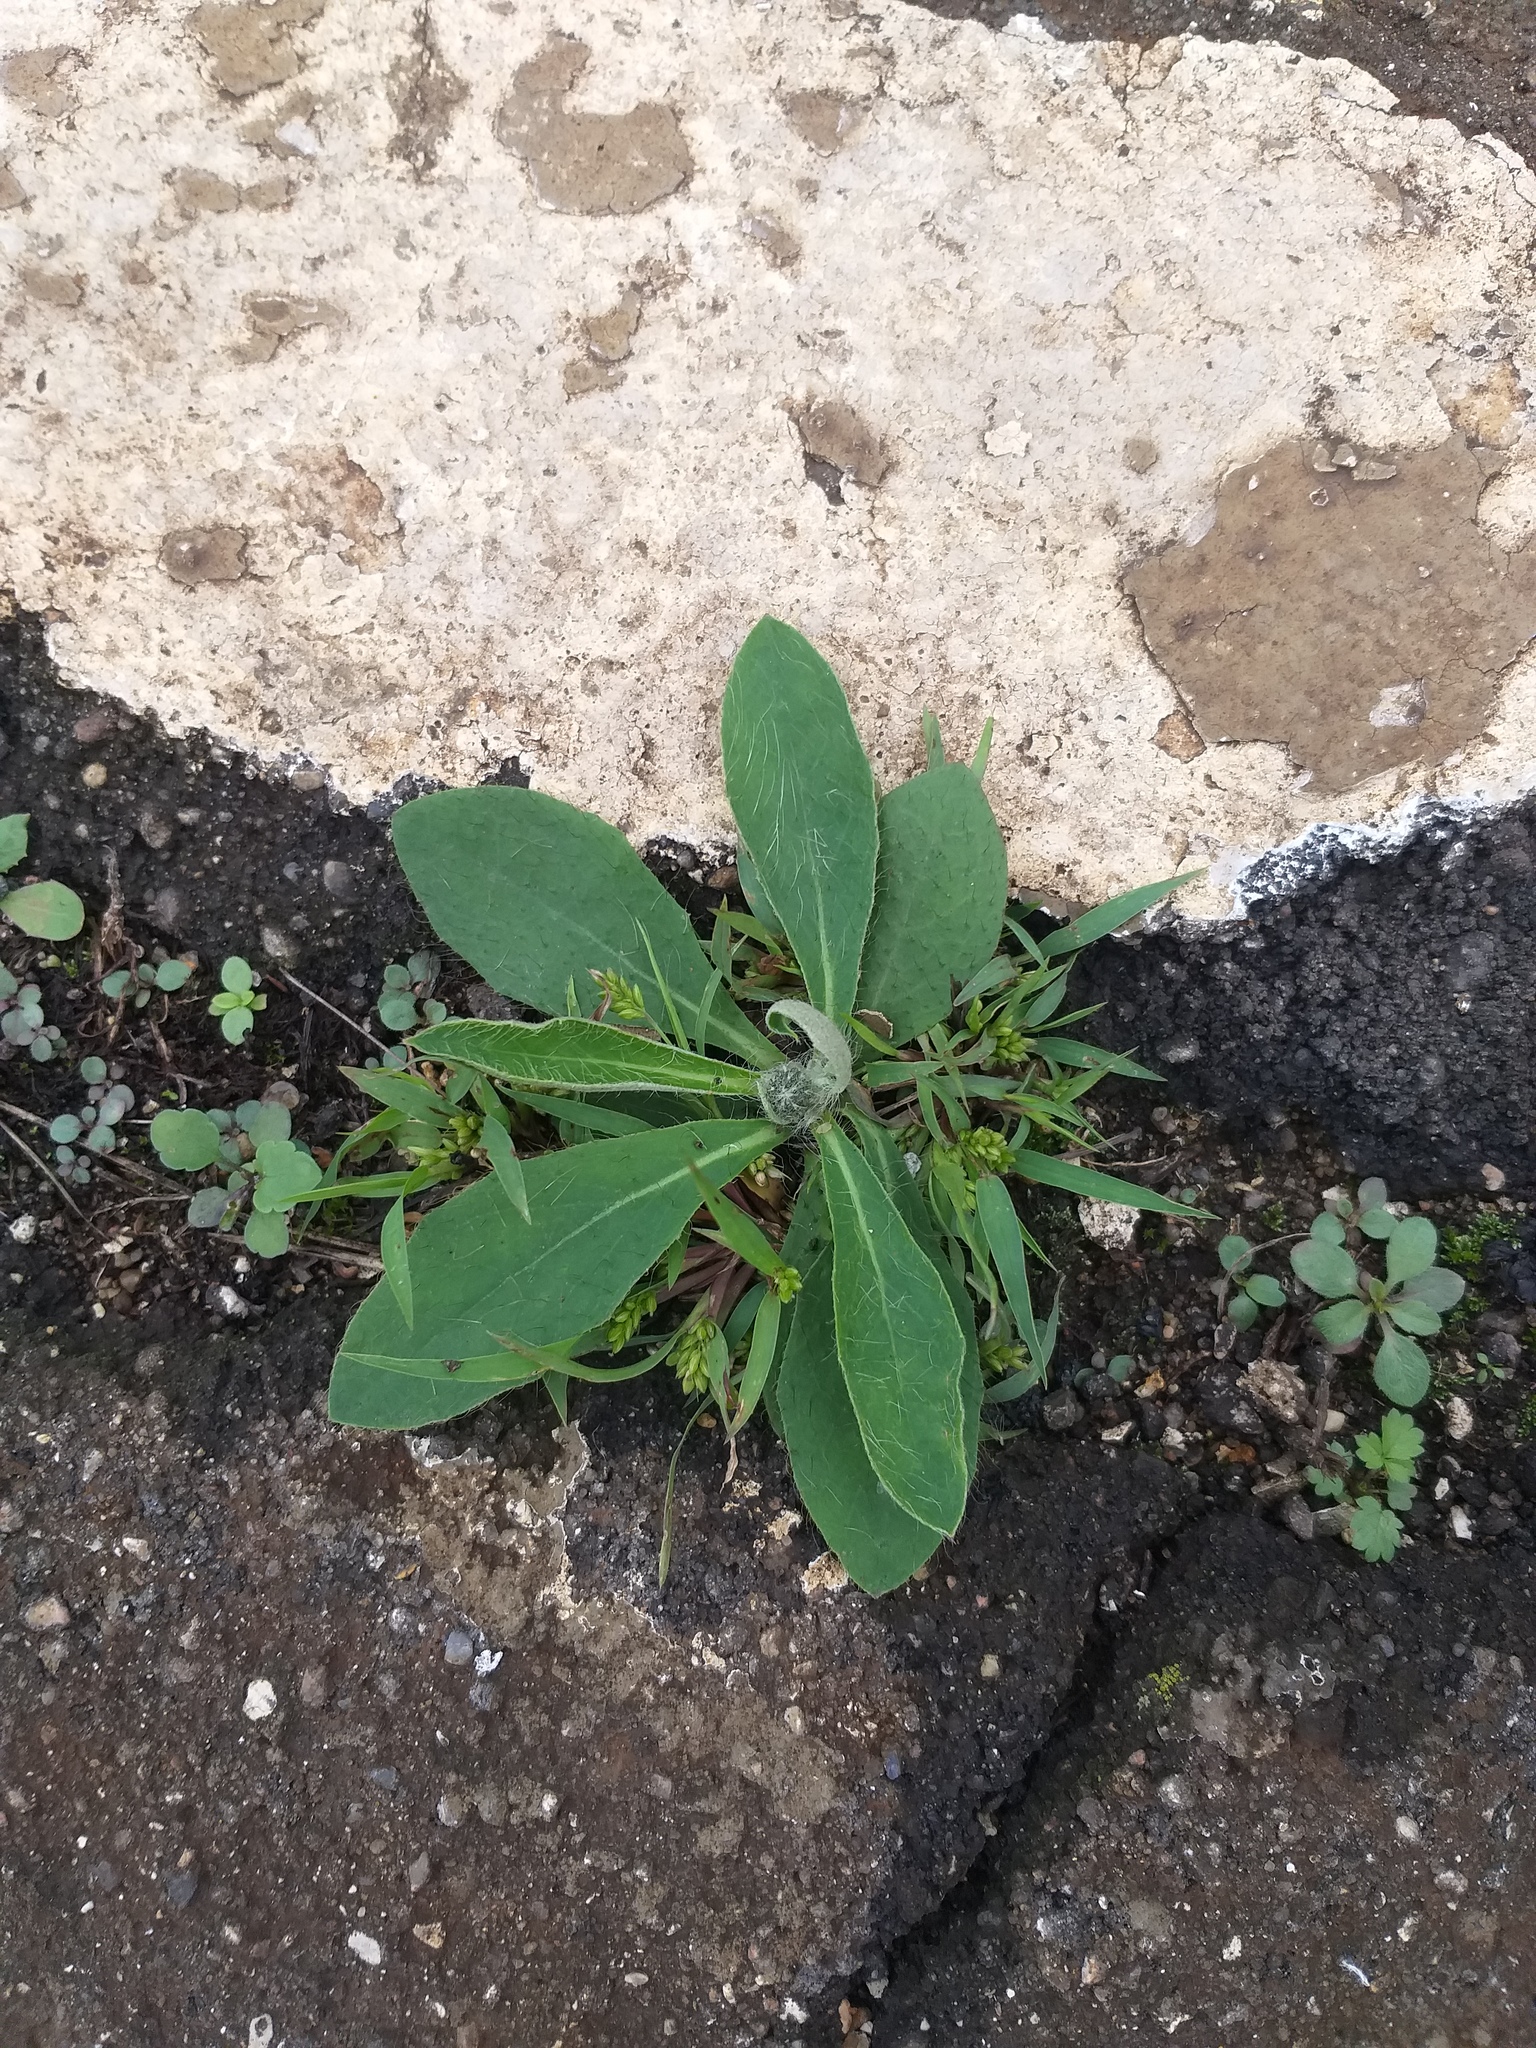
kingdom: Plantae
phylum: Tracheophyta
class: Magnoliopsida
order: Asterales
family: Asteraceae
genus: Pilosella
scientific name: Pilosella officinarum
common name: Mouse-ear hawkweed
